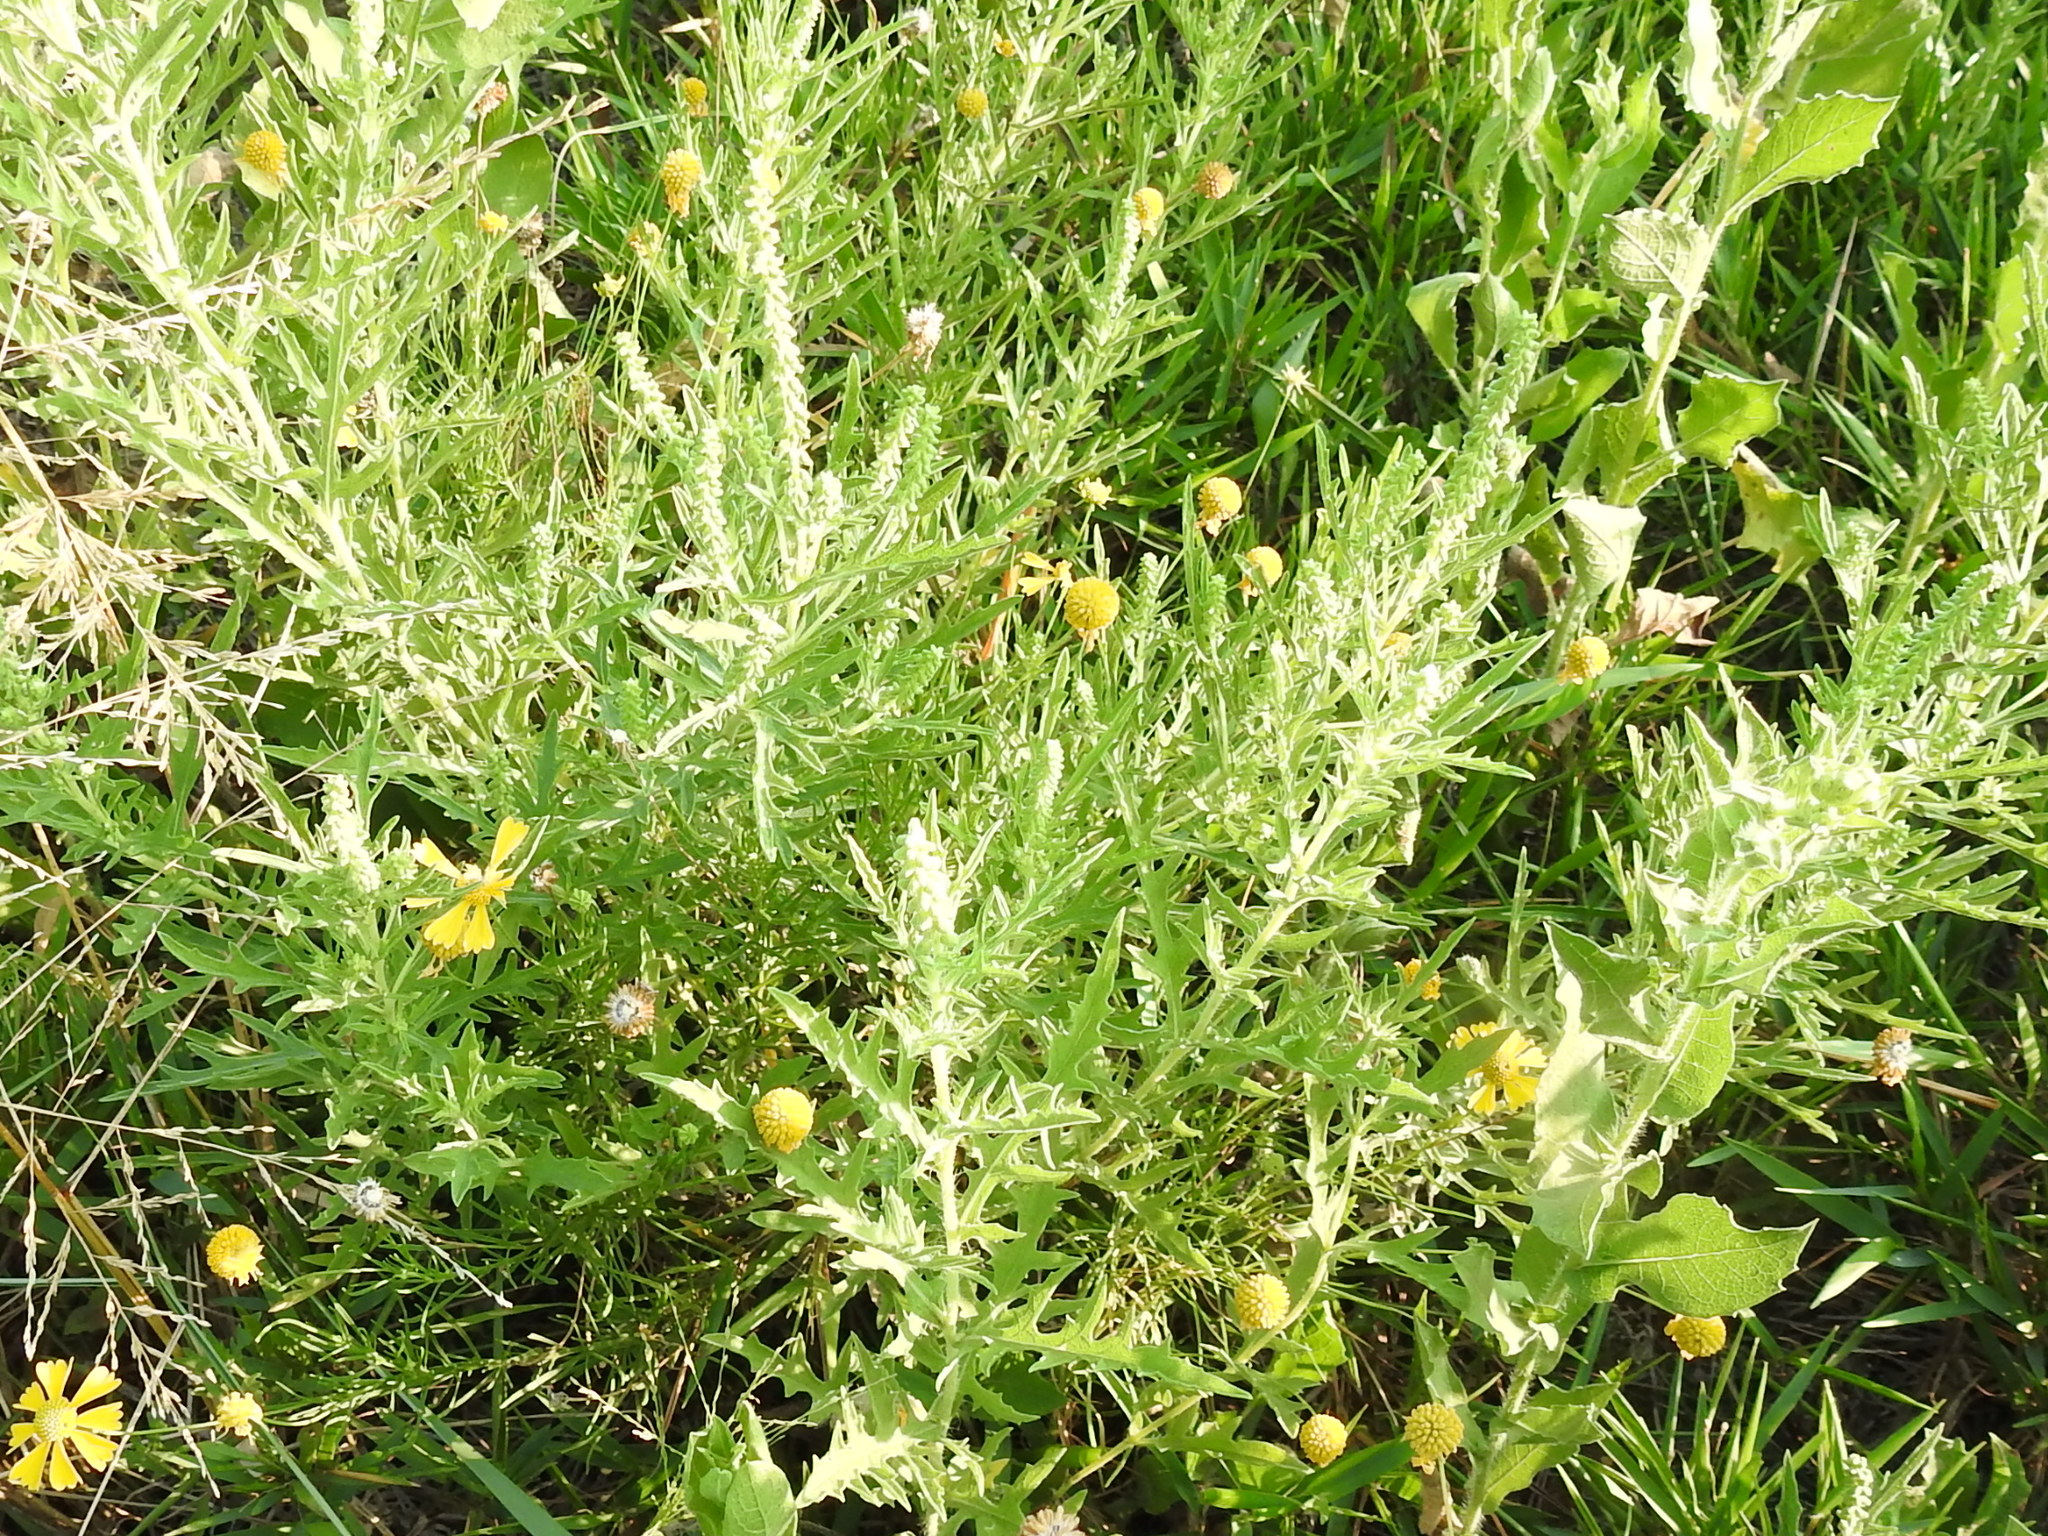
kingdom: Plantae
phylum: Tracheophyta
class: Magnoliopsida
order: Asterales
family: Asteraceae
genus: Ambrosia
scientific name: Ambrosia psilostachya
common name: Perennial ragweed
